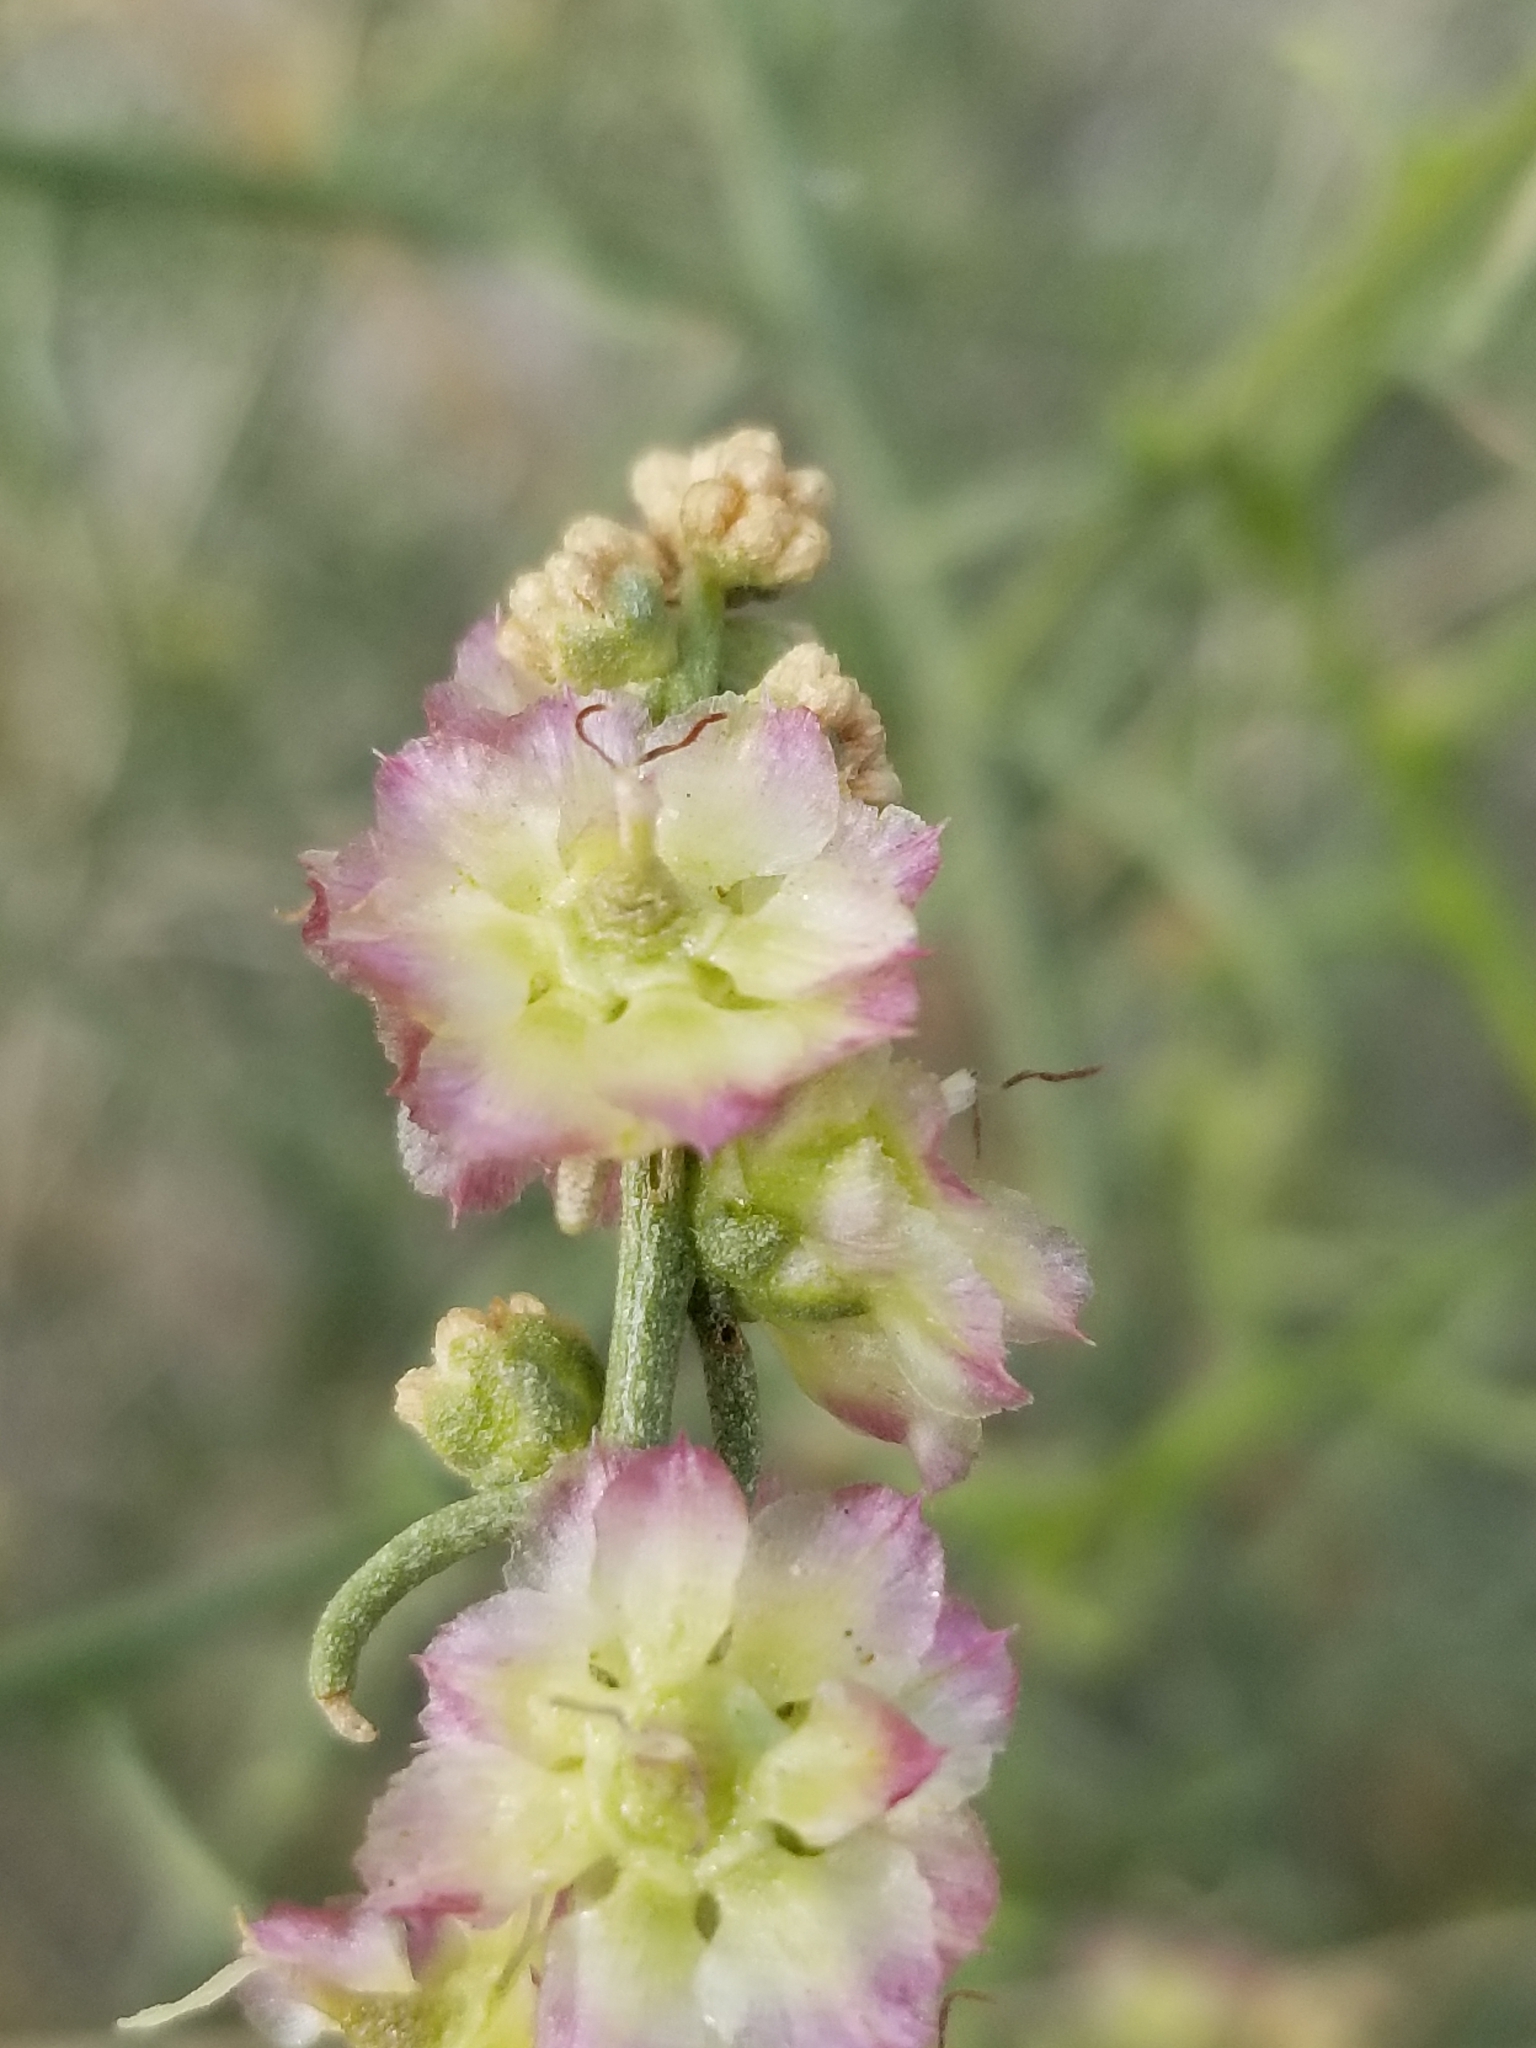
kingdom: Plantae
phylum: Tracheophyta
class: Magnoliopsida
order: Asterales
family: Asteraceae
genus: Ambrosia
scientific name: Ambrosia salsola
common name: Burrobrush
